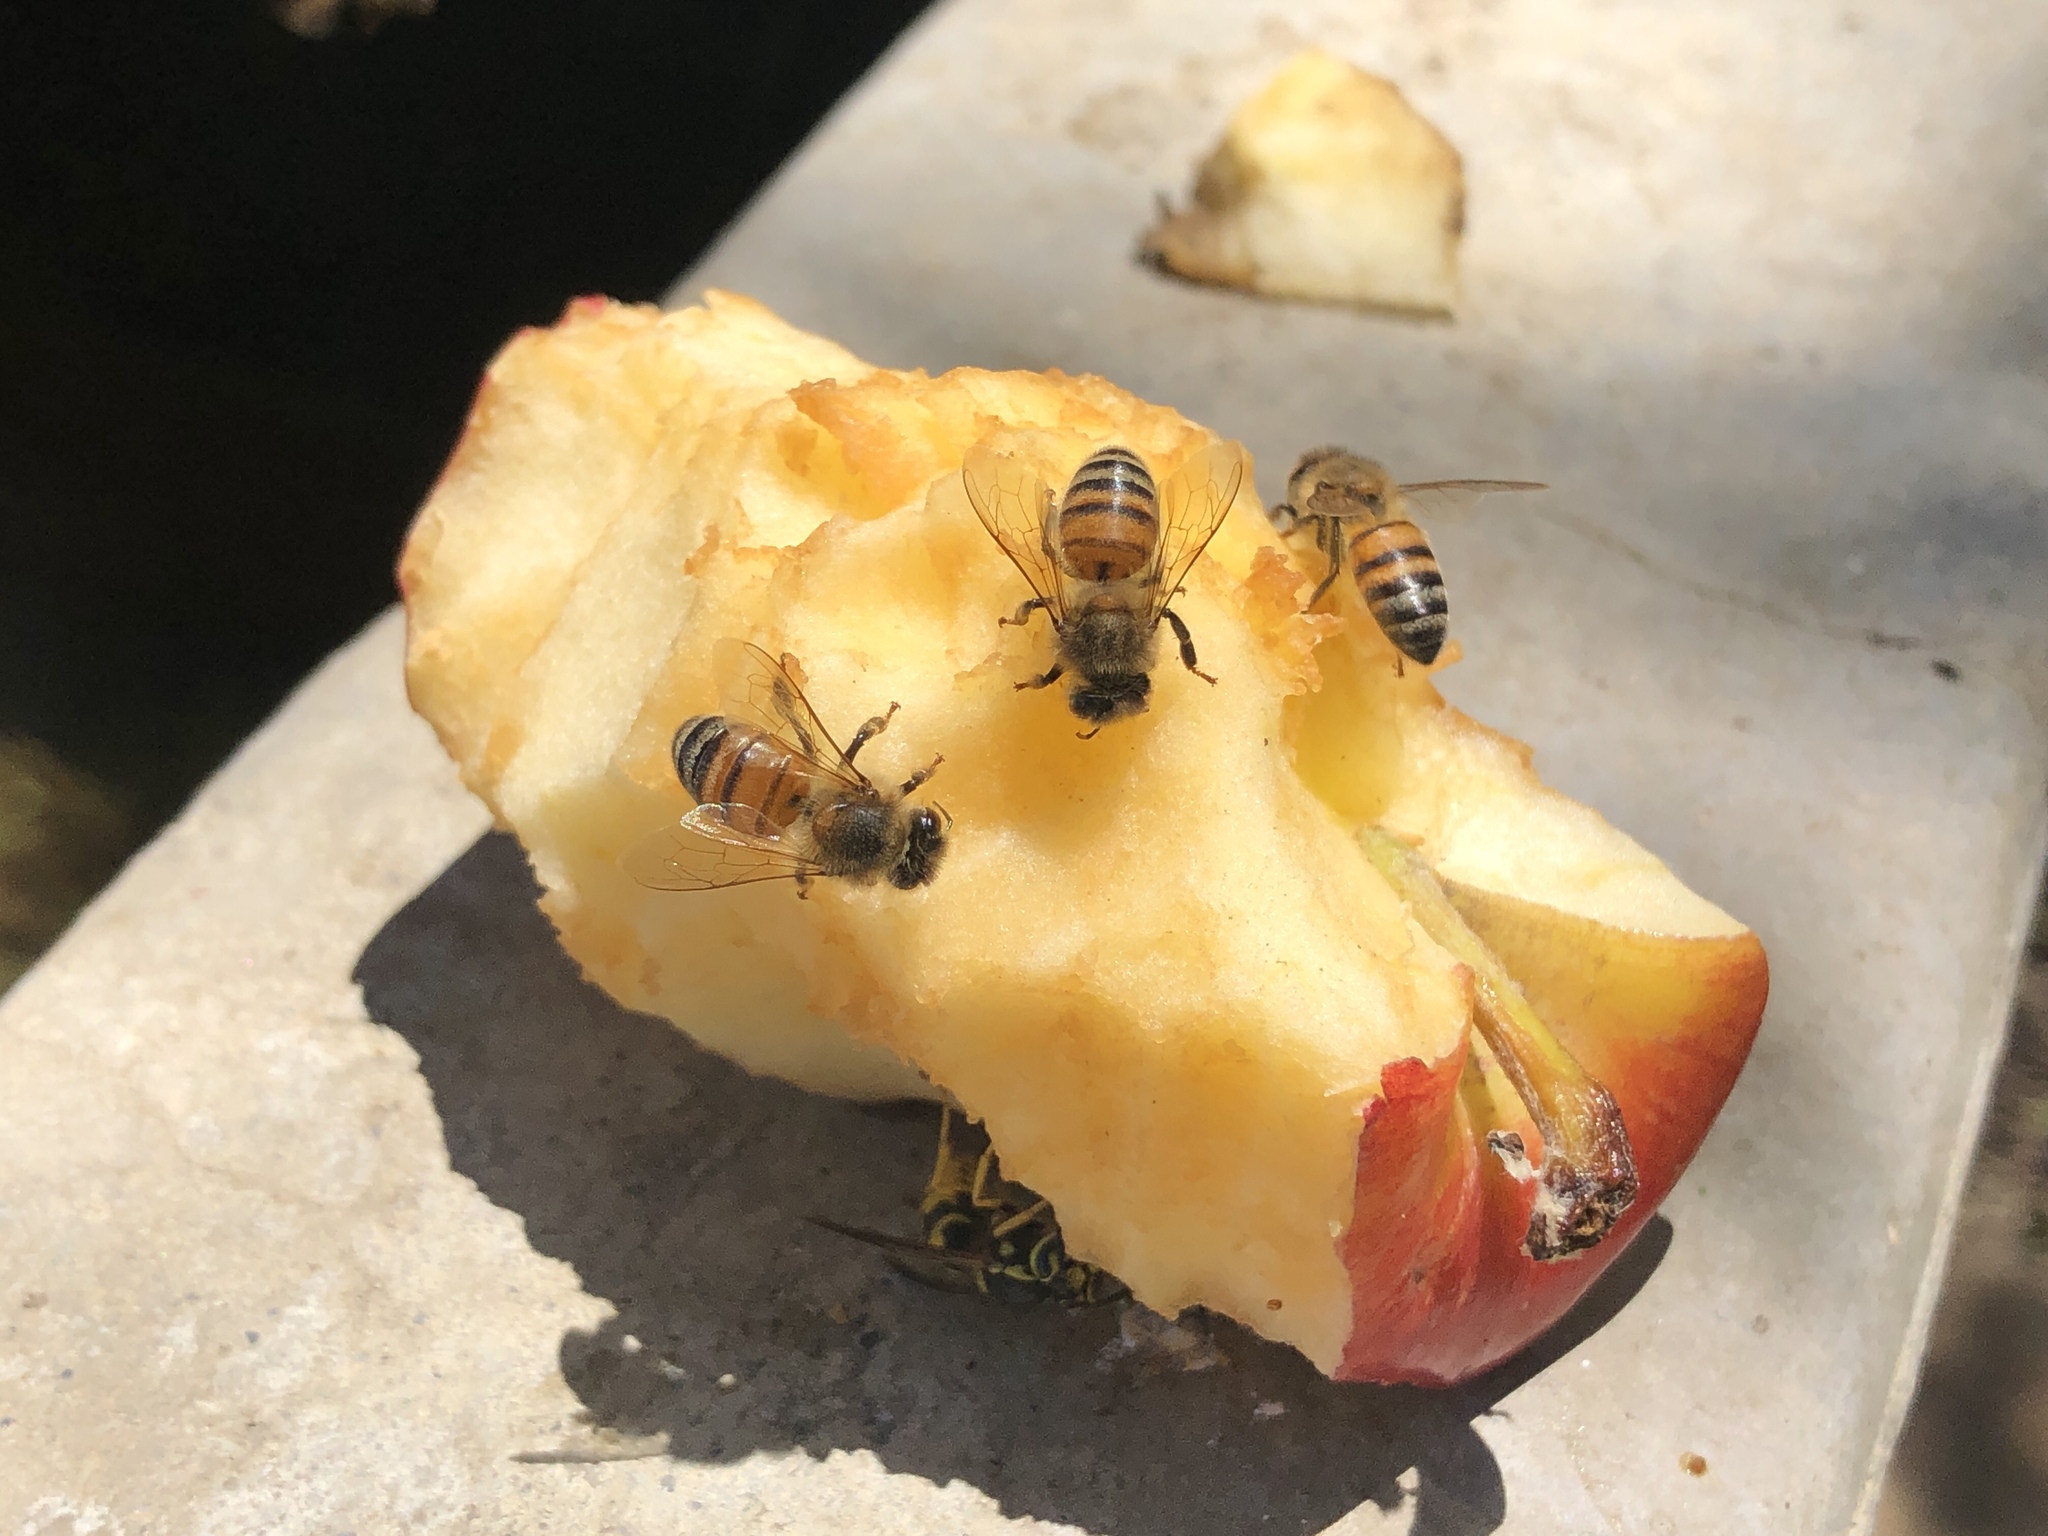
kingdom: Animalia
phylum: Arthropoda
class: Insecta
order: Hymenoptera
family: Apidae
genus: Apis
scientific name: Apis mellifera
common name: Honey bee
